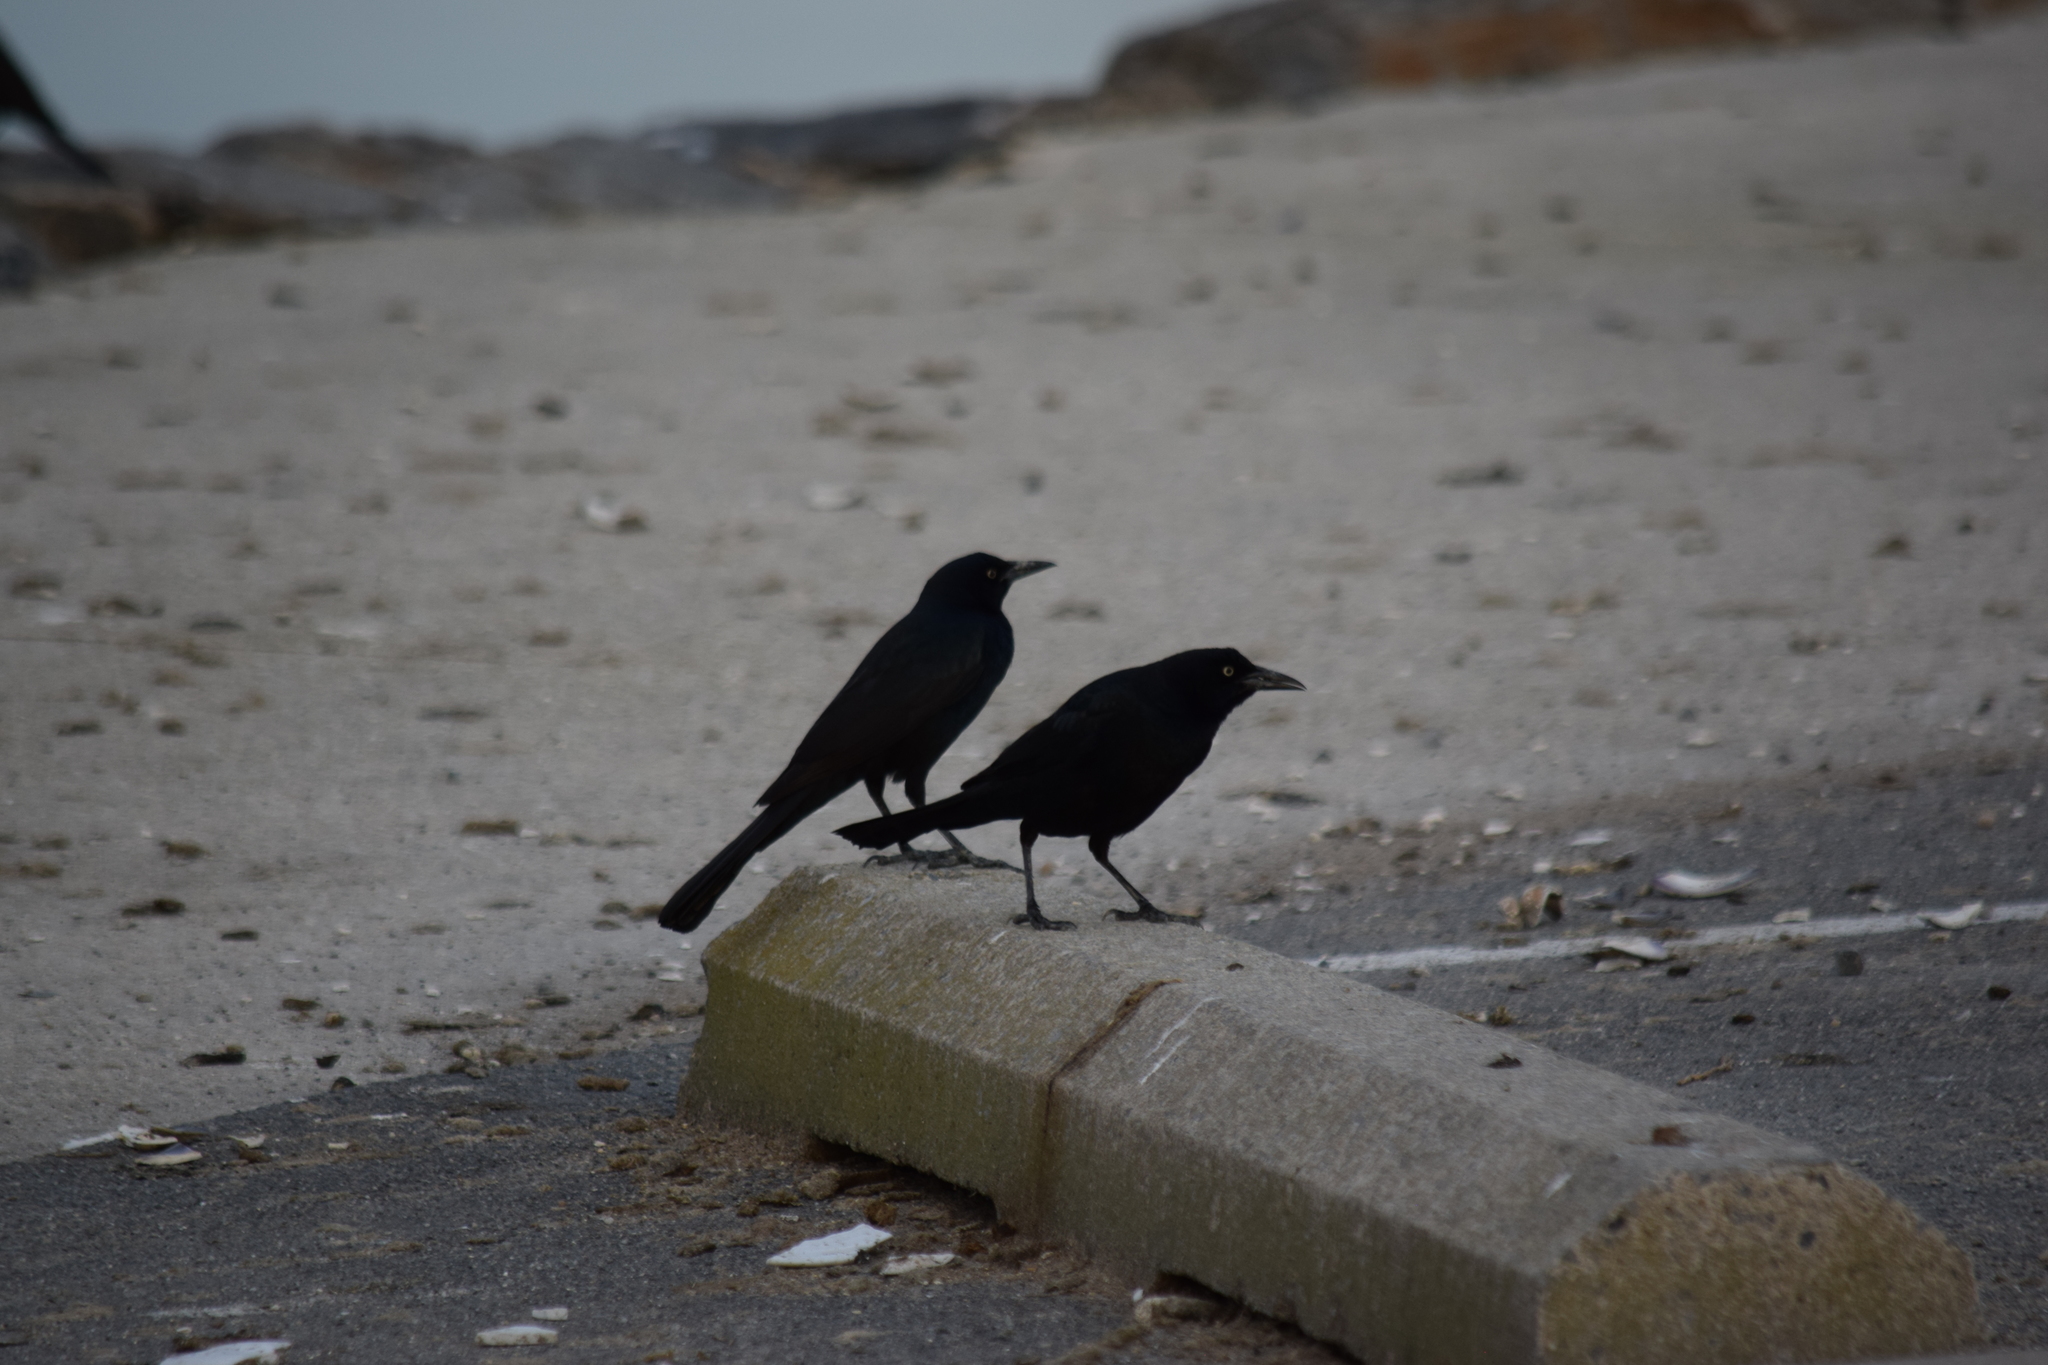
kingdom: Animalia
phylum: Chordata
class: Aves
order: Passeriformes
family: Icteridae
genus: Quiscalus
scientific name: Quiscalus major
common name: Boat-tailed grackle
